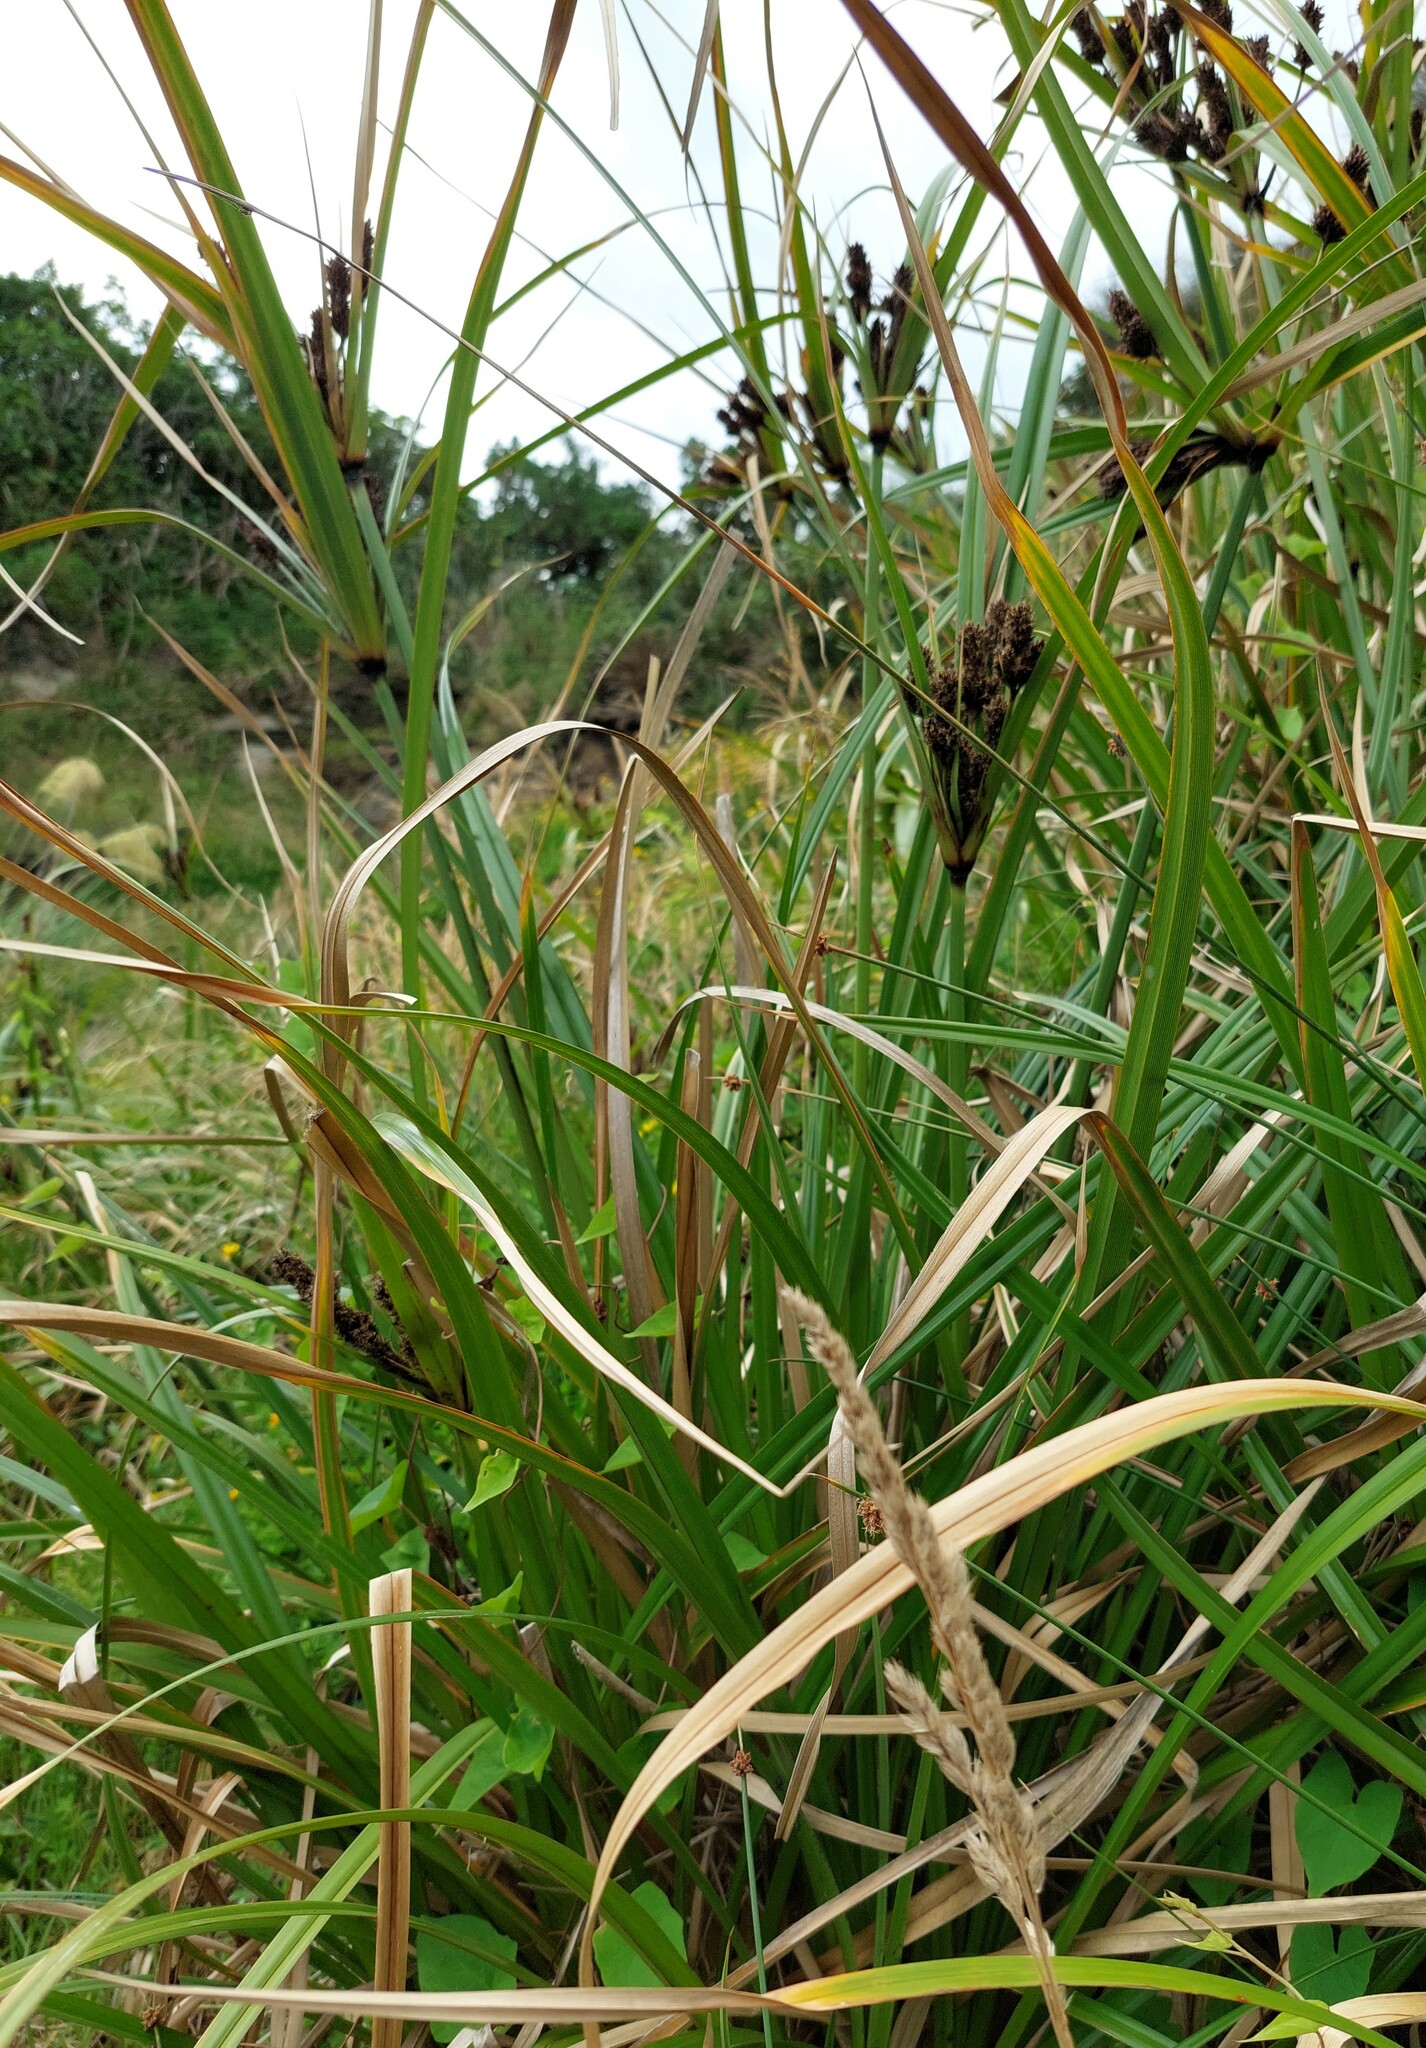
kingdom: Plantae
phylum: Tracheophyta
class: Liliopsida
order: Poales
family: Cyperaceae
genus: Cyperus
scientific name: Cyperus ustulatus
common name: Giant umbrella-sedge
